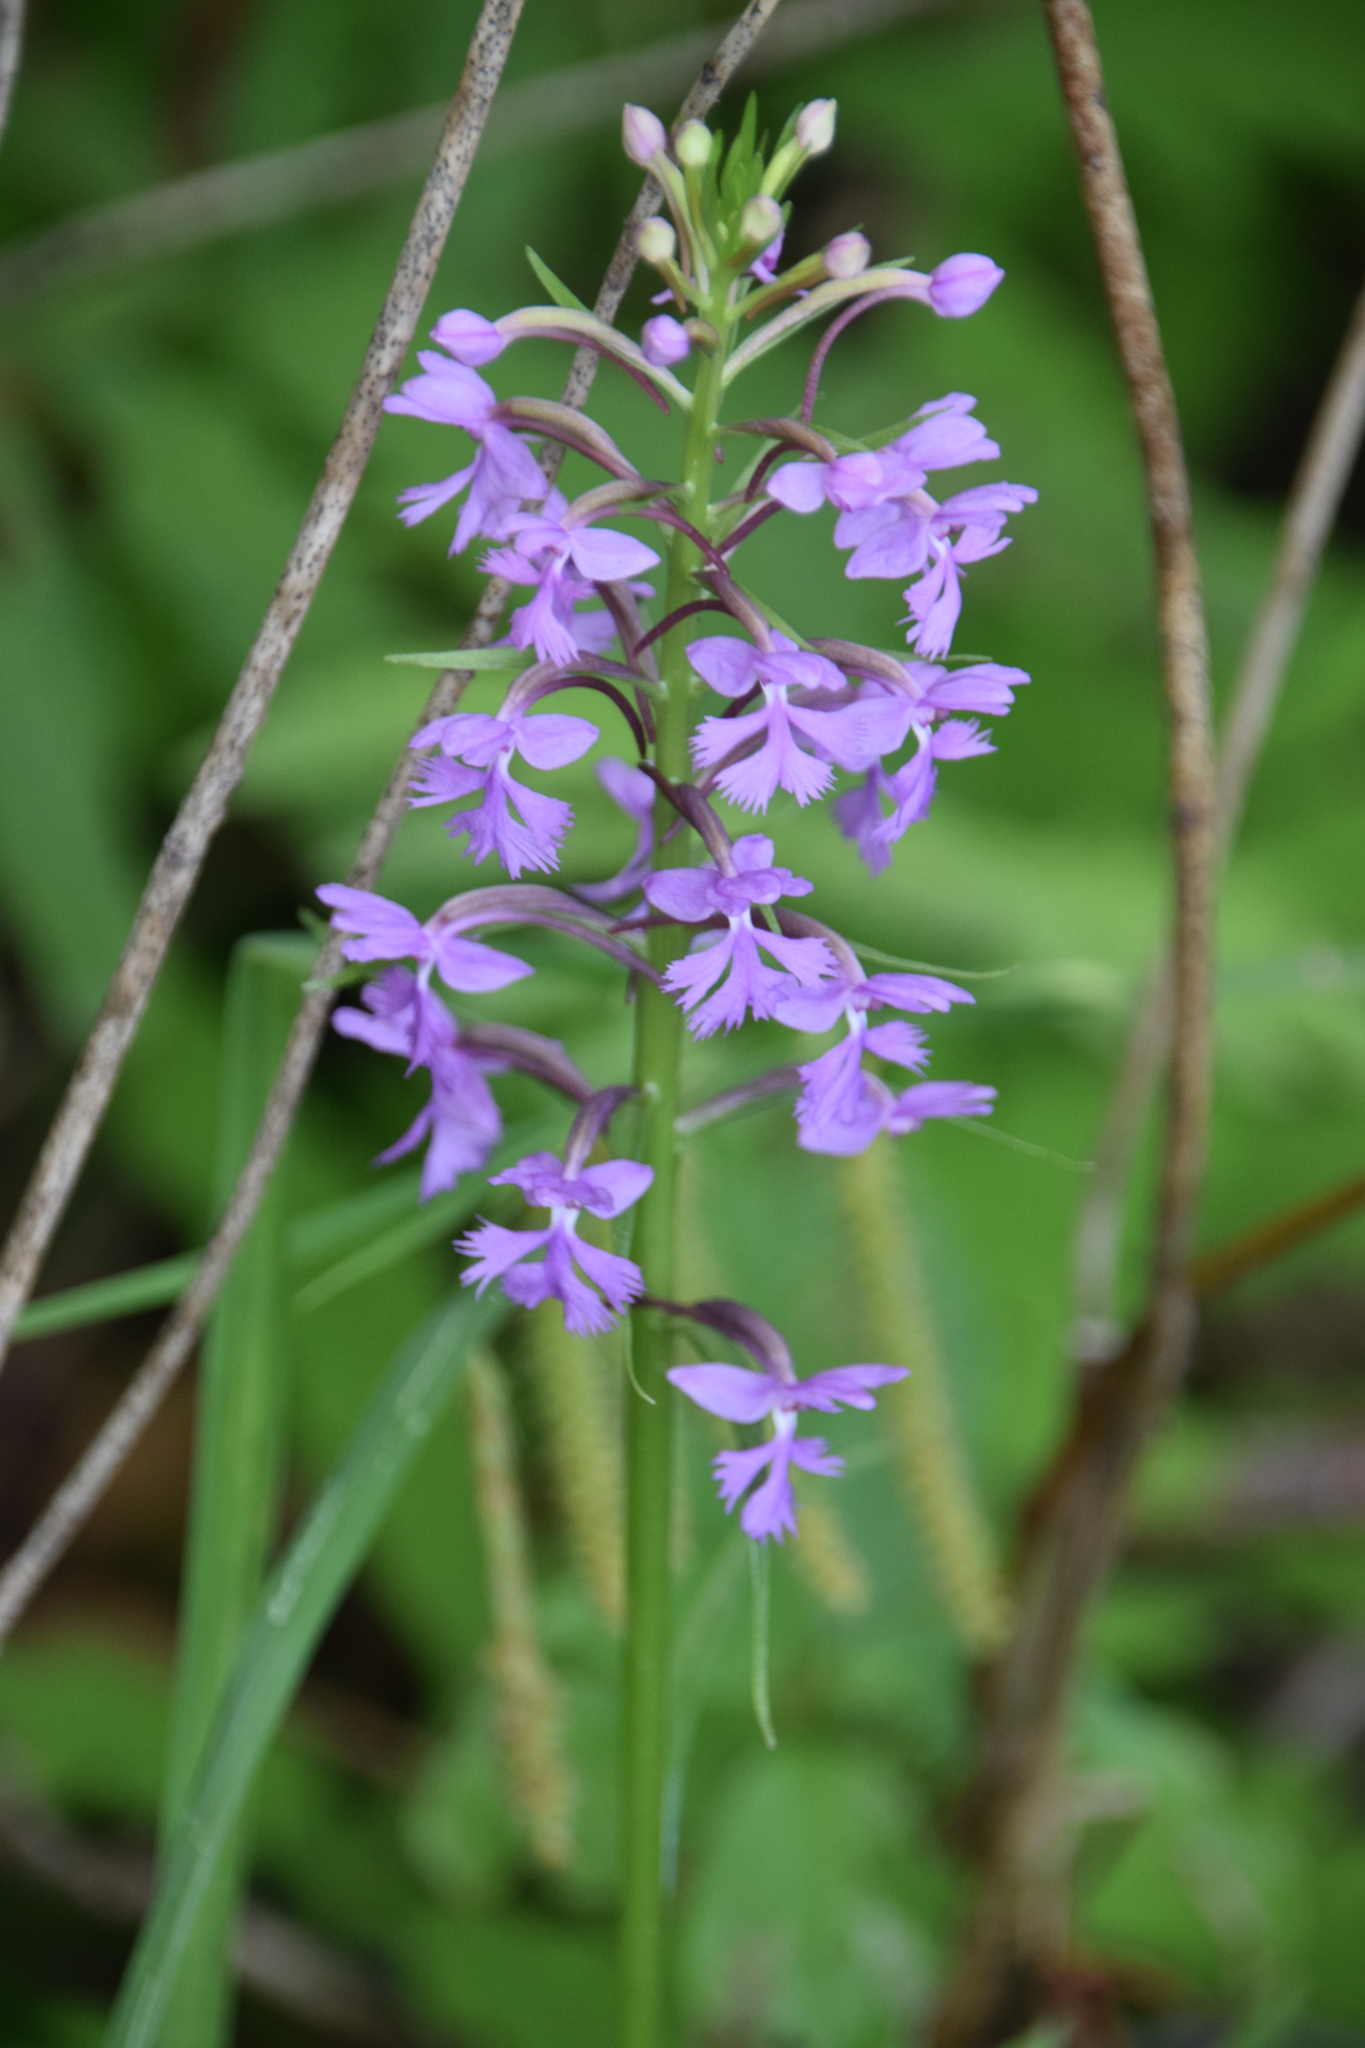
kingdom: Plantae
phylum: Tracheophyta
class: Liliopsida
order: Asparagales
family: Orchidaceae
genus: Platanthera
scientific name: Platanthera psycodes
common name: Lesser purple fringed orchid
